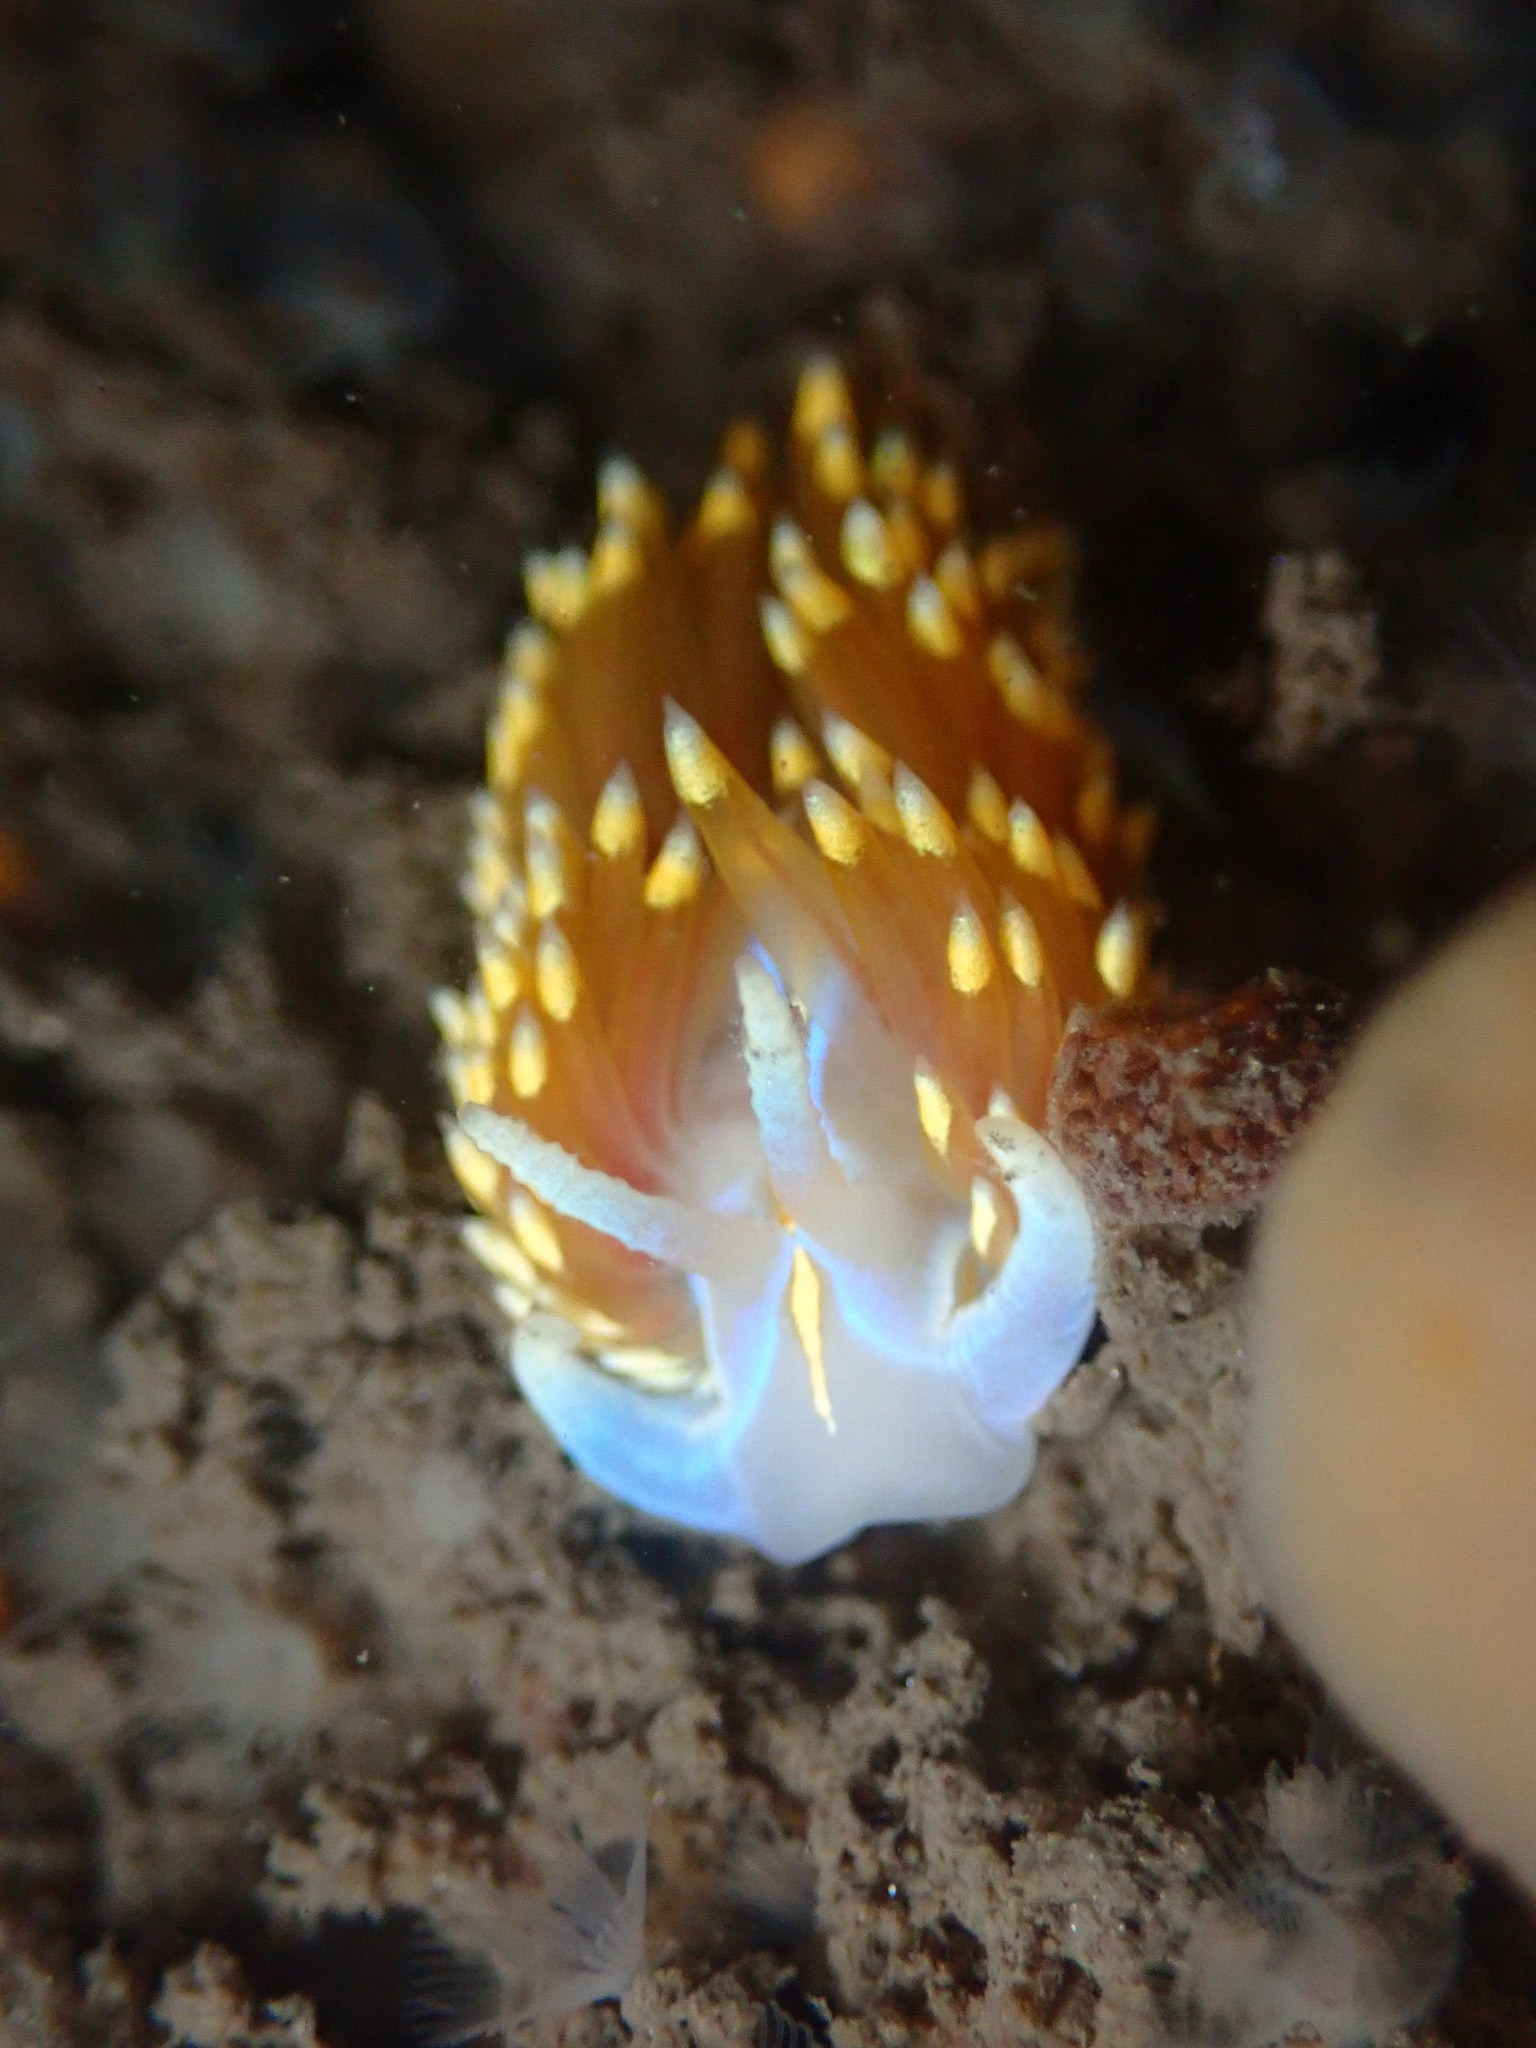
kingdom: Animalia
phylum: Mollusca
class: Gastropoda
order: Nudibranchia
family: Myrrhinidae
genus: Hermissenda
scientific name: Hermissenda opalescens
